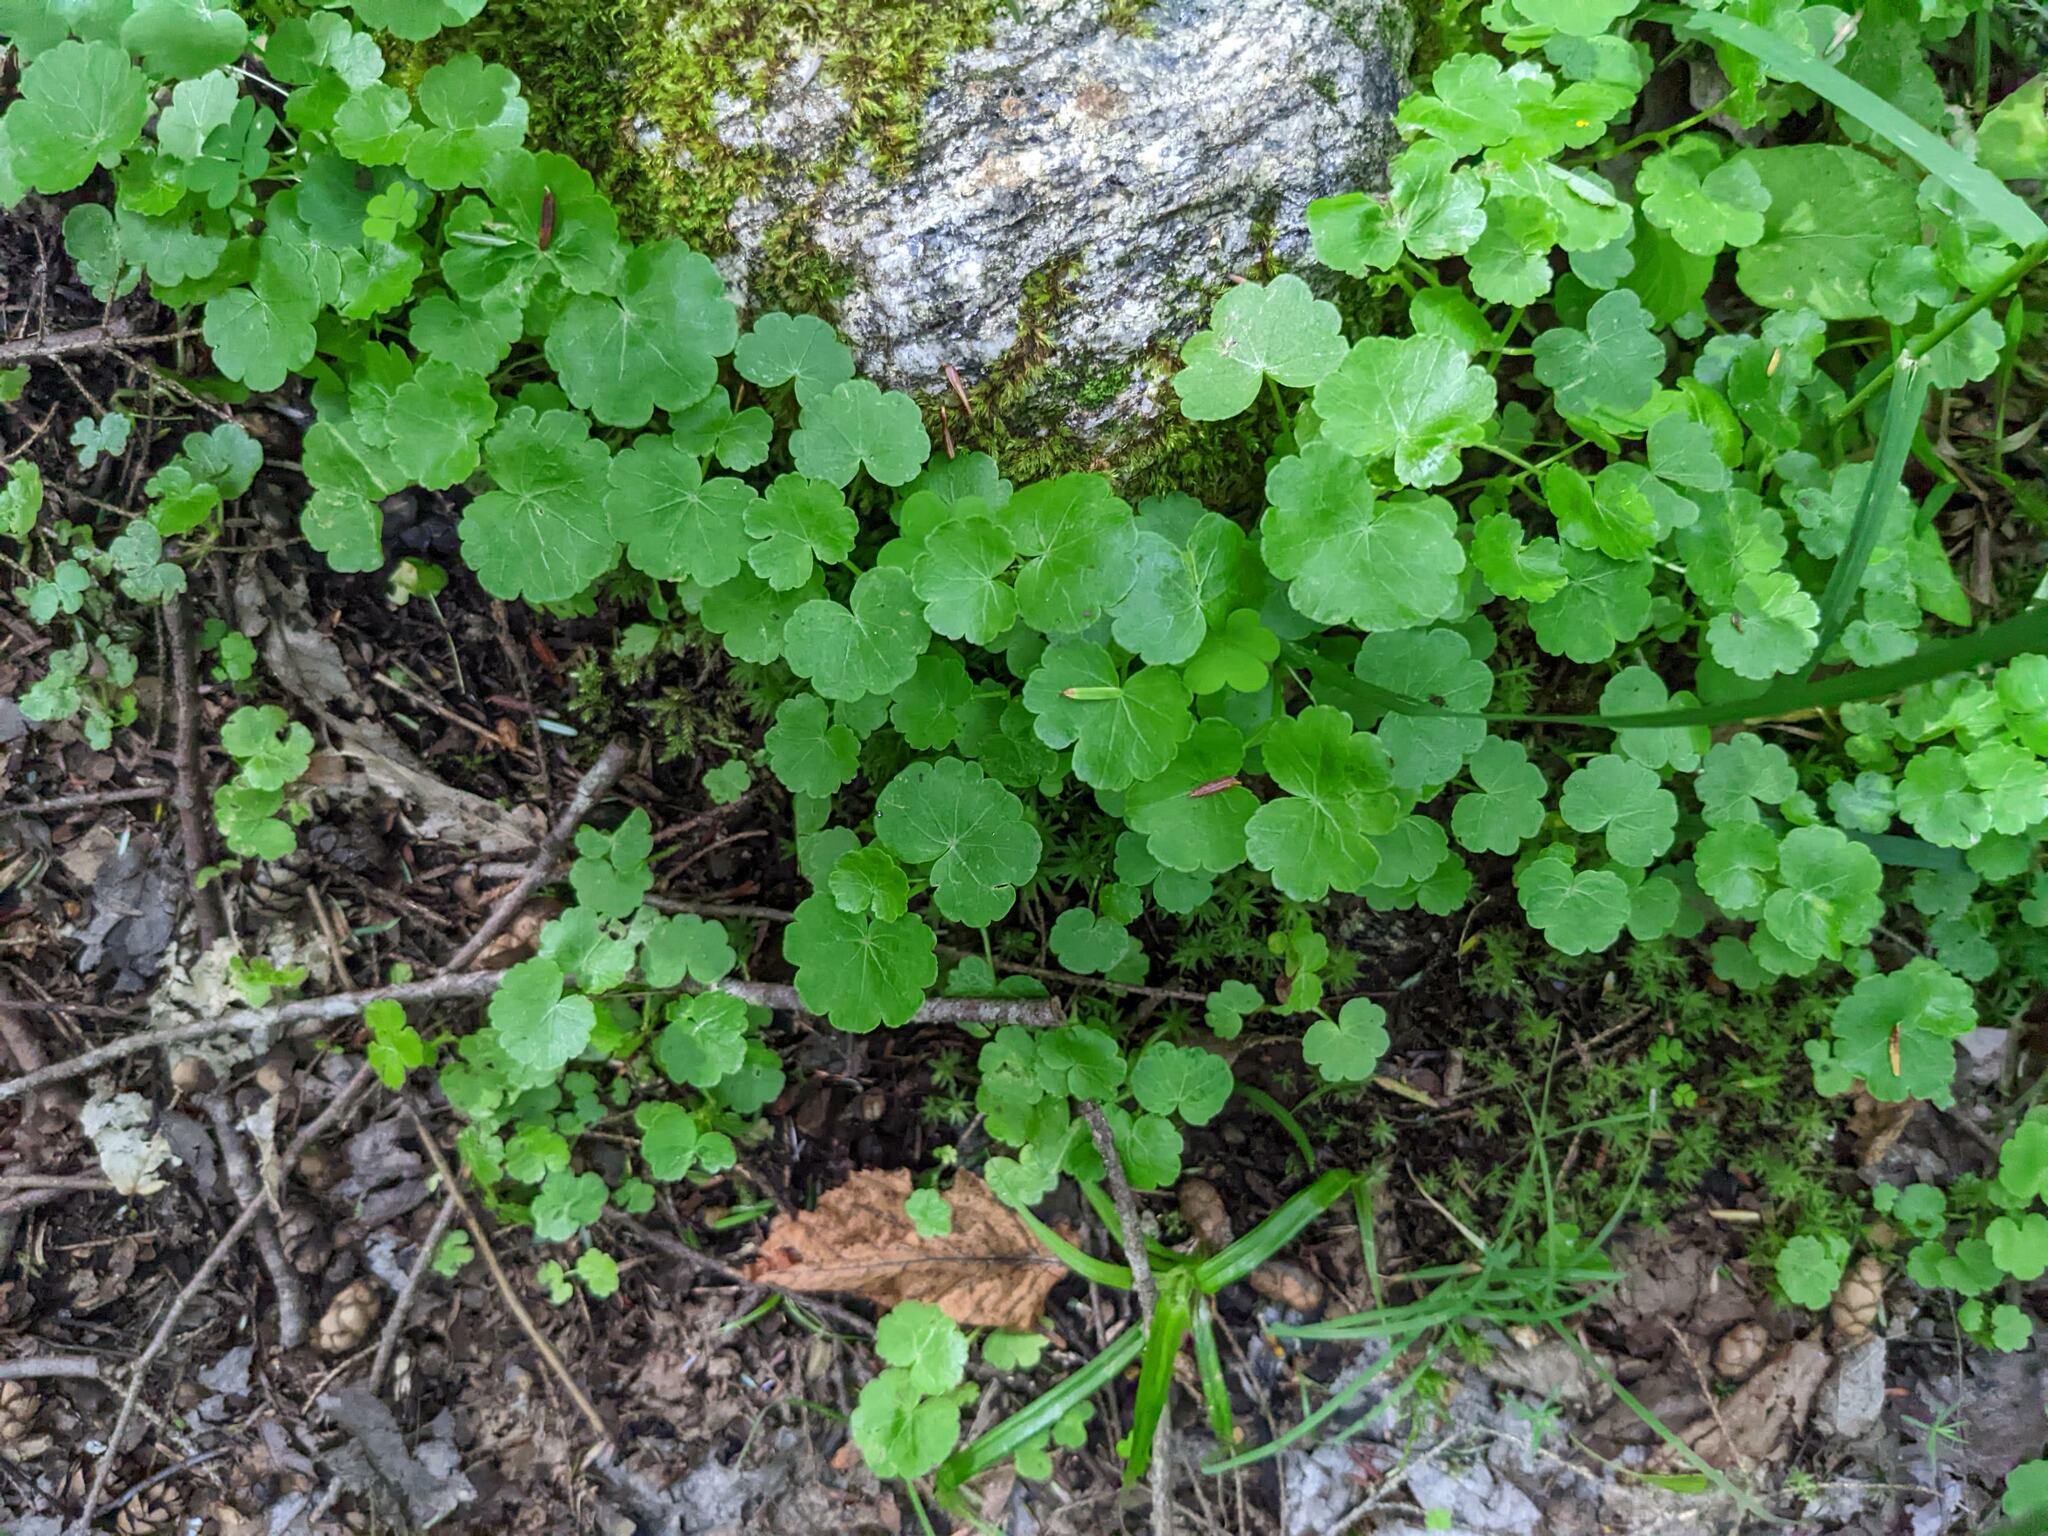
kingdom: Plantae
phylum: Tracheophyta
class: Magnoliopsida
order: Apiales
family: Araliaceae
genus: Hydrocotyle
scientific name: Hydrocotyle americana
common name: American water-pennywort
